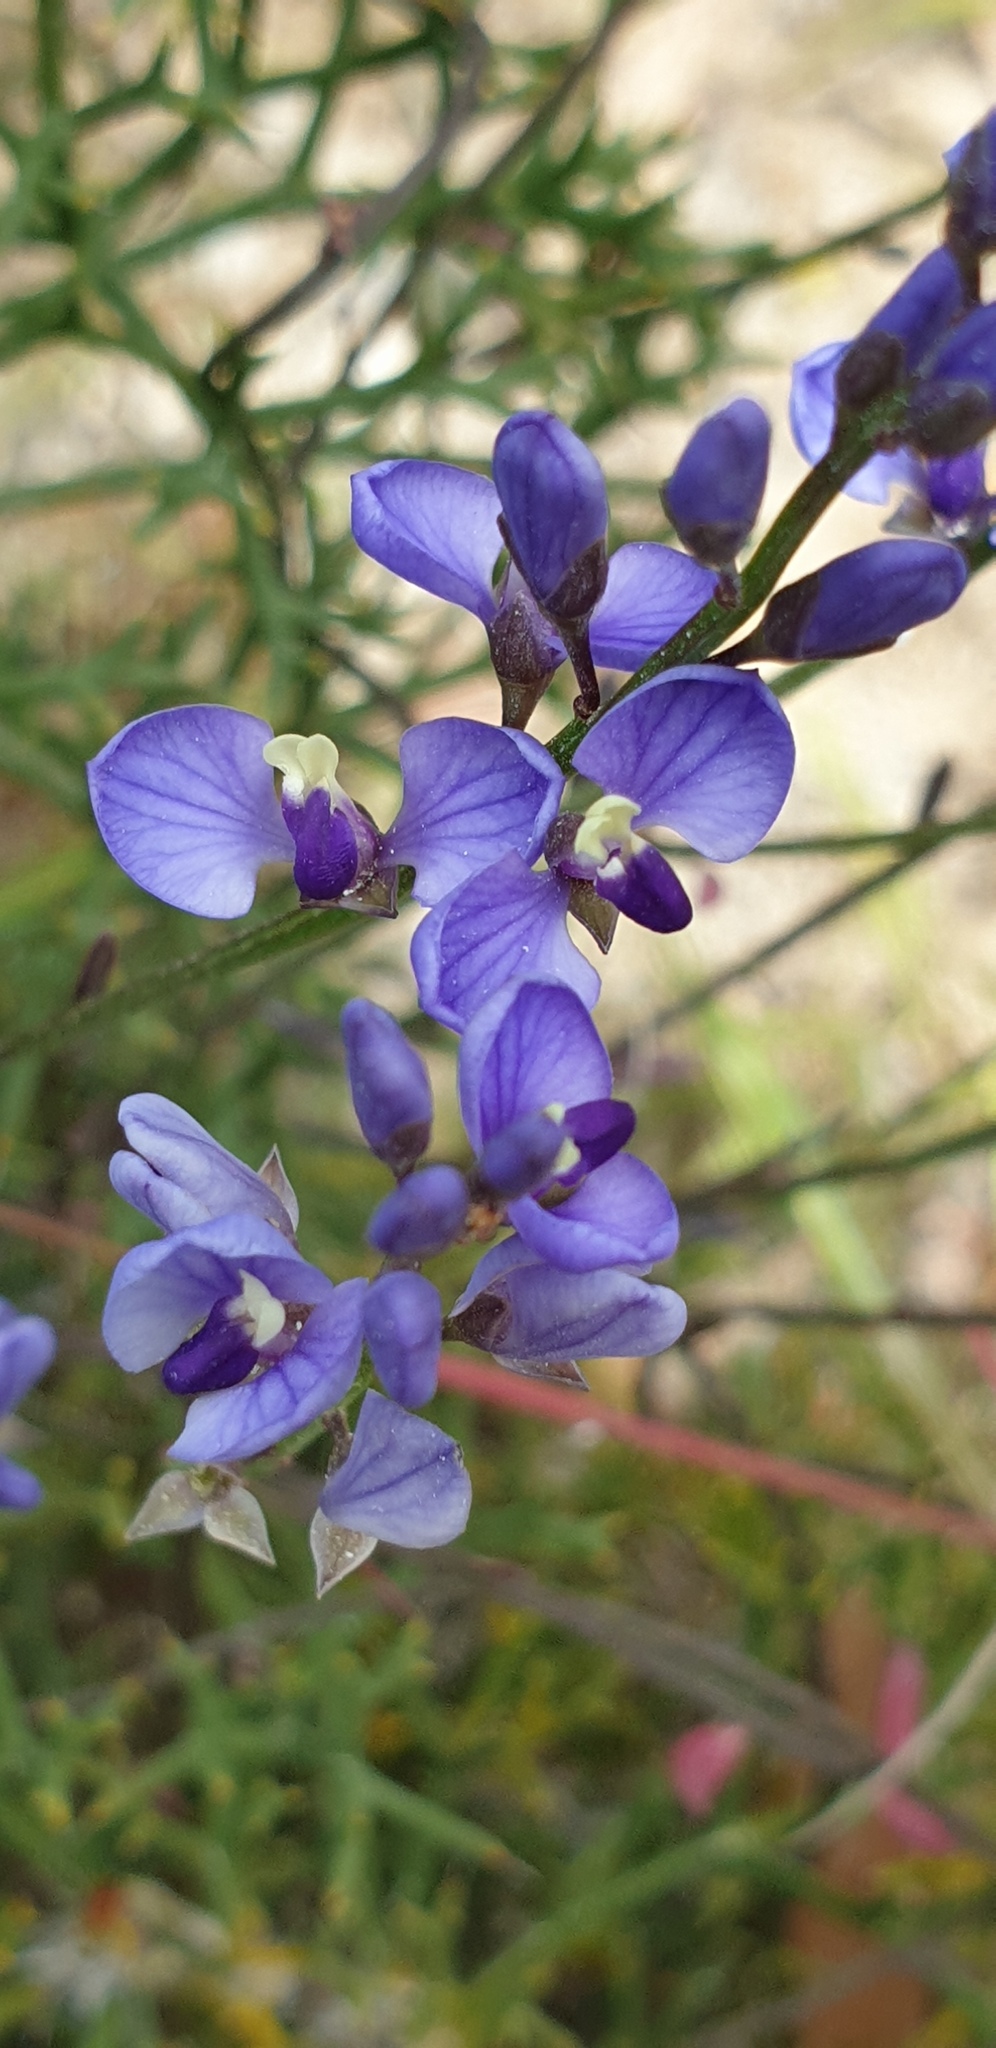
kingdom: Plantae
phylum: Tracheophyta
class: Magnoliopsida
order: Fabales
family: Polygalaceae
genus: Comesperma
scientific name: Comesperma volubile
